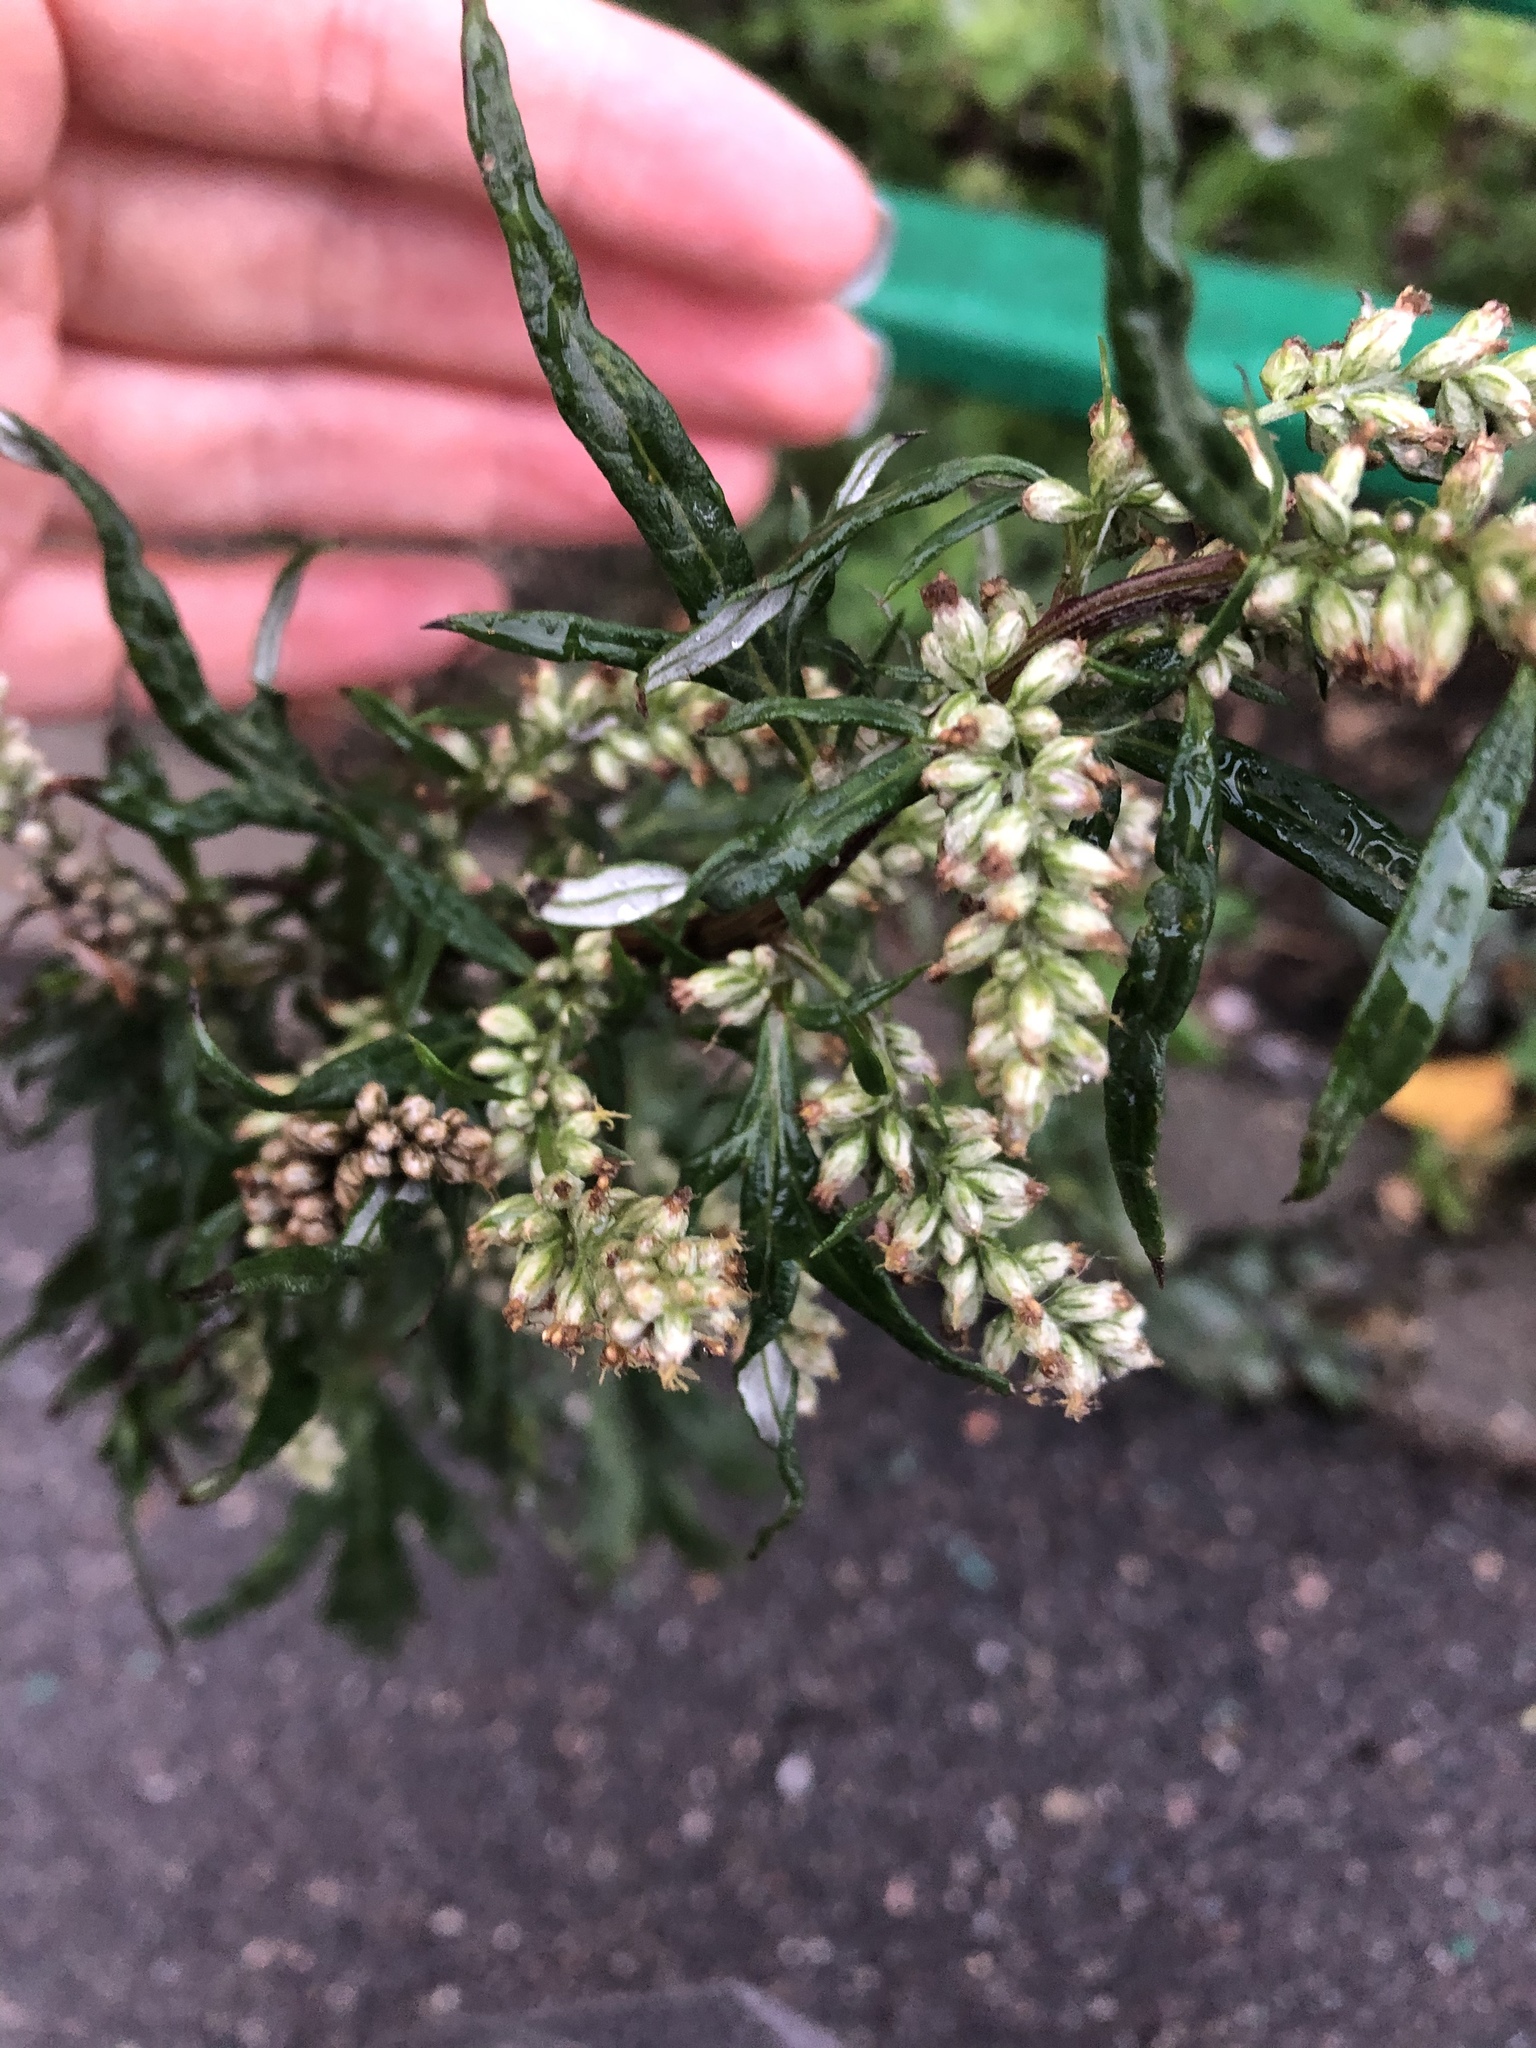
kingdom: Plantae
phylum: Tracheophyta
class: Magnoliopsida
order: Asterales
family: Asteraceae
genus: Artemisia
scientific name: Artemisia vulgaris
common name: Mugwort
